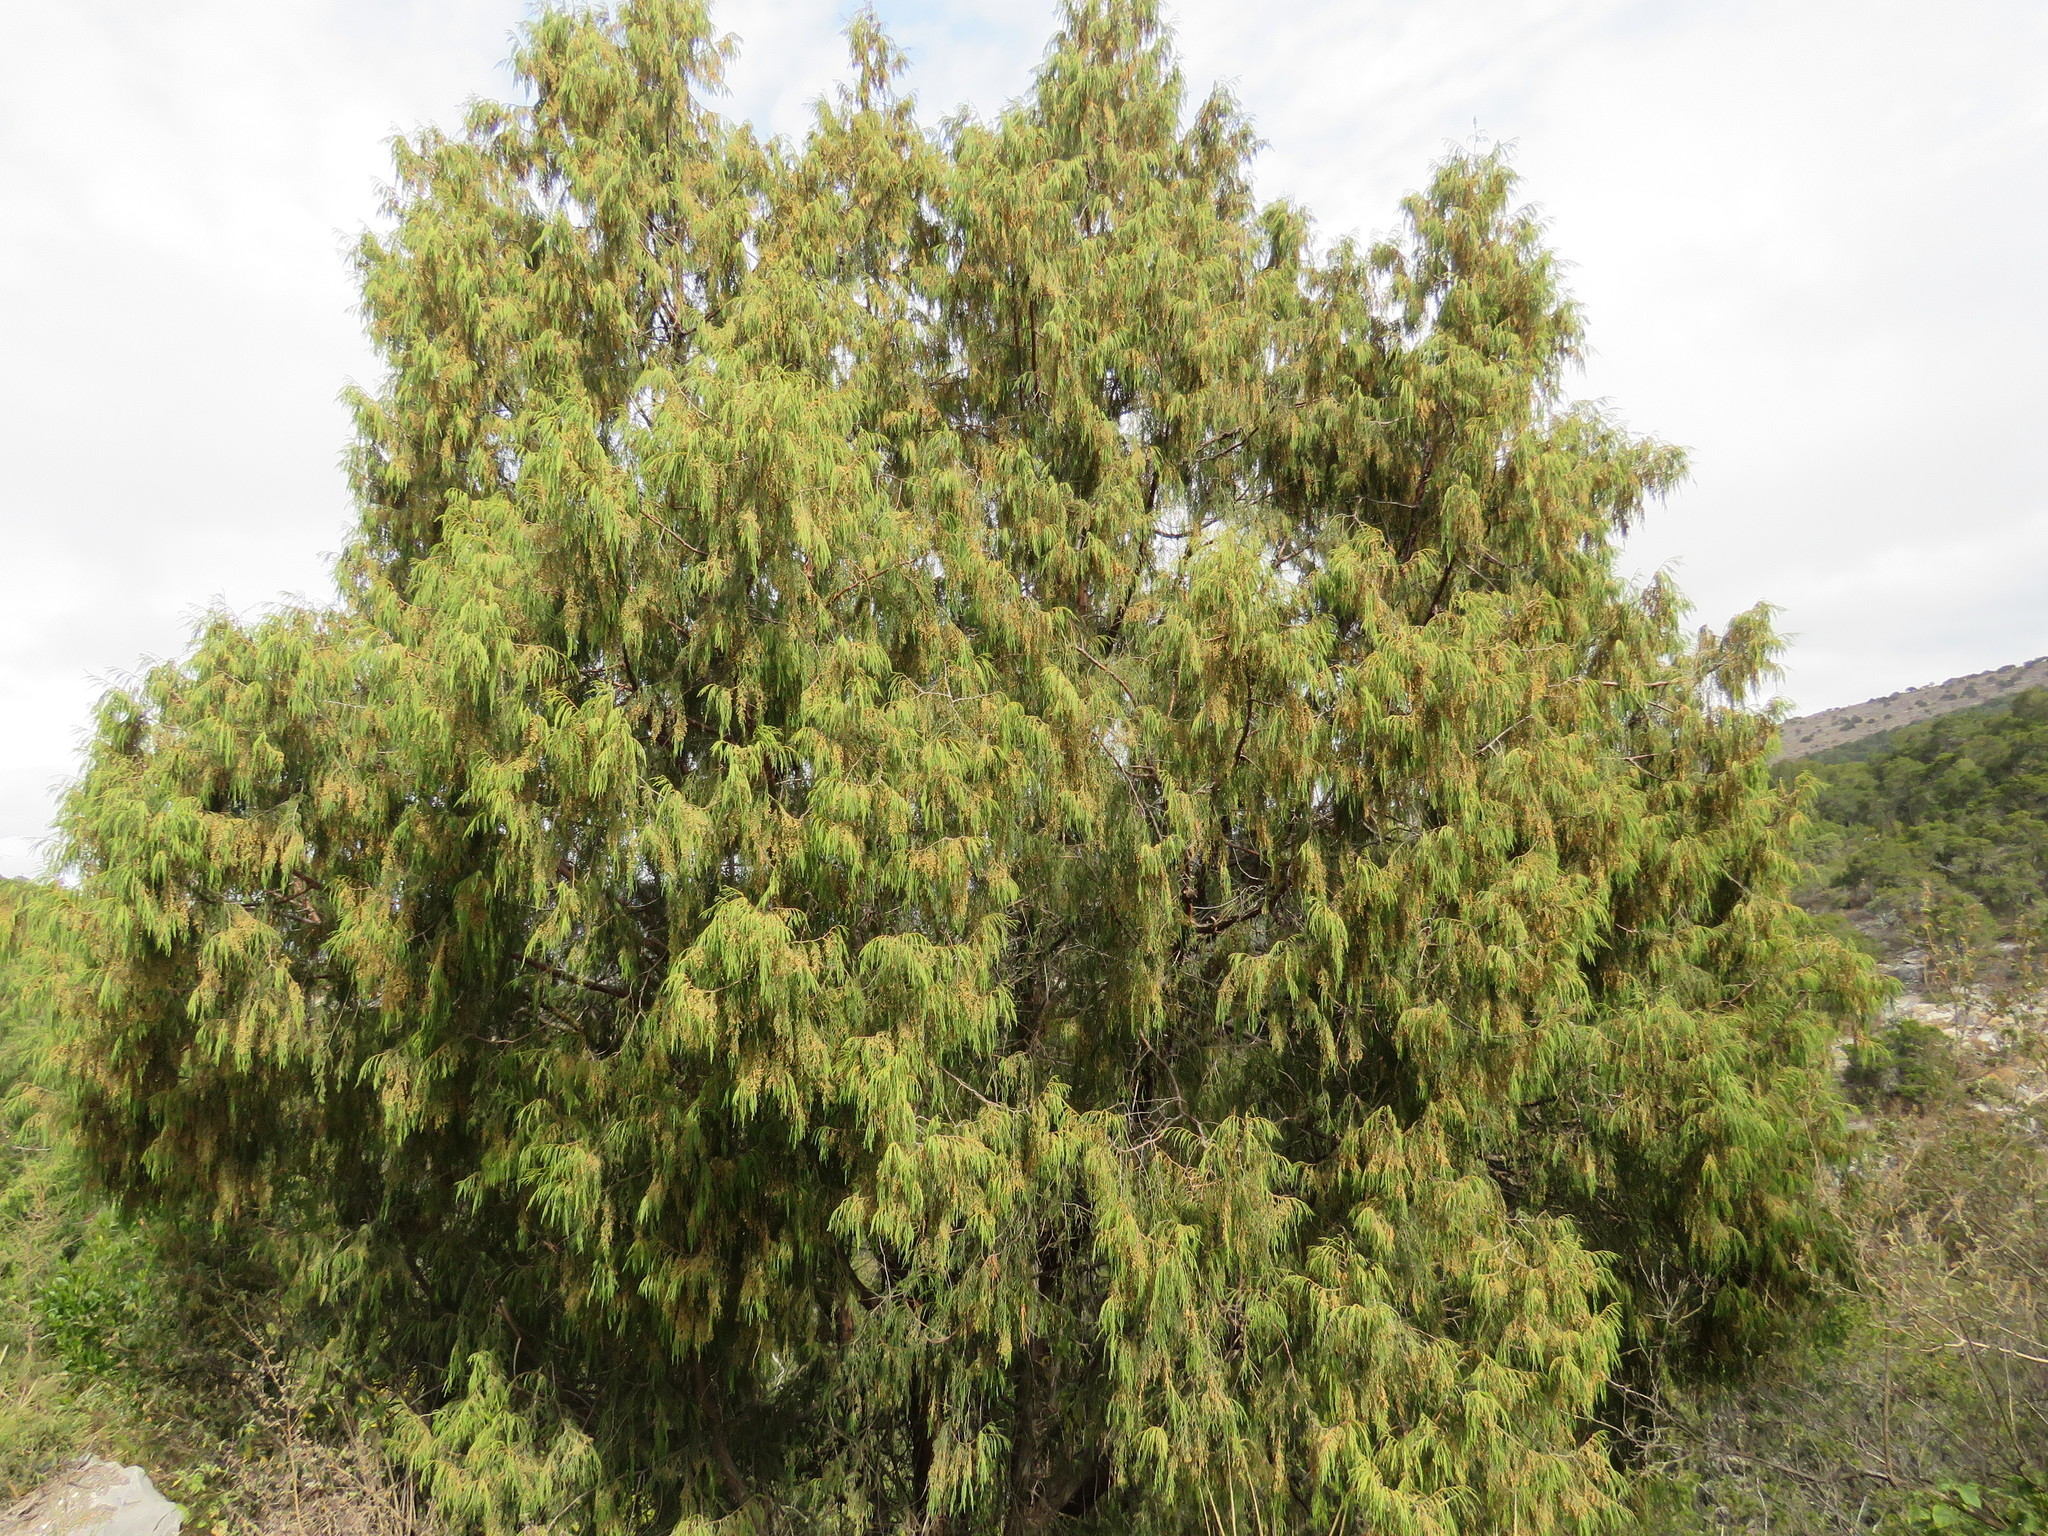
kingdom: Plantae
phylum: Tracheophyta
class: Pinopsida
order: Pinales
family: Cupressaceae
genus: Juniperus
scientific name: Juniperus flaccida
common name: Drooping juniper
